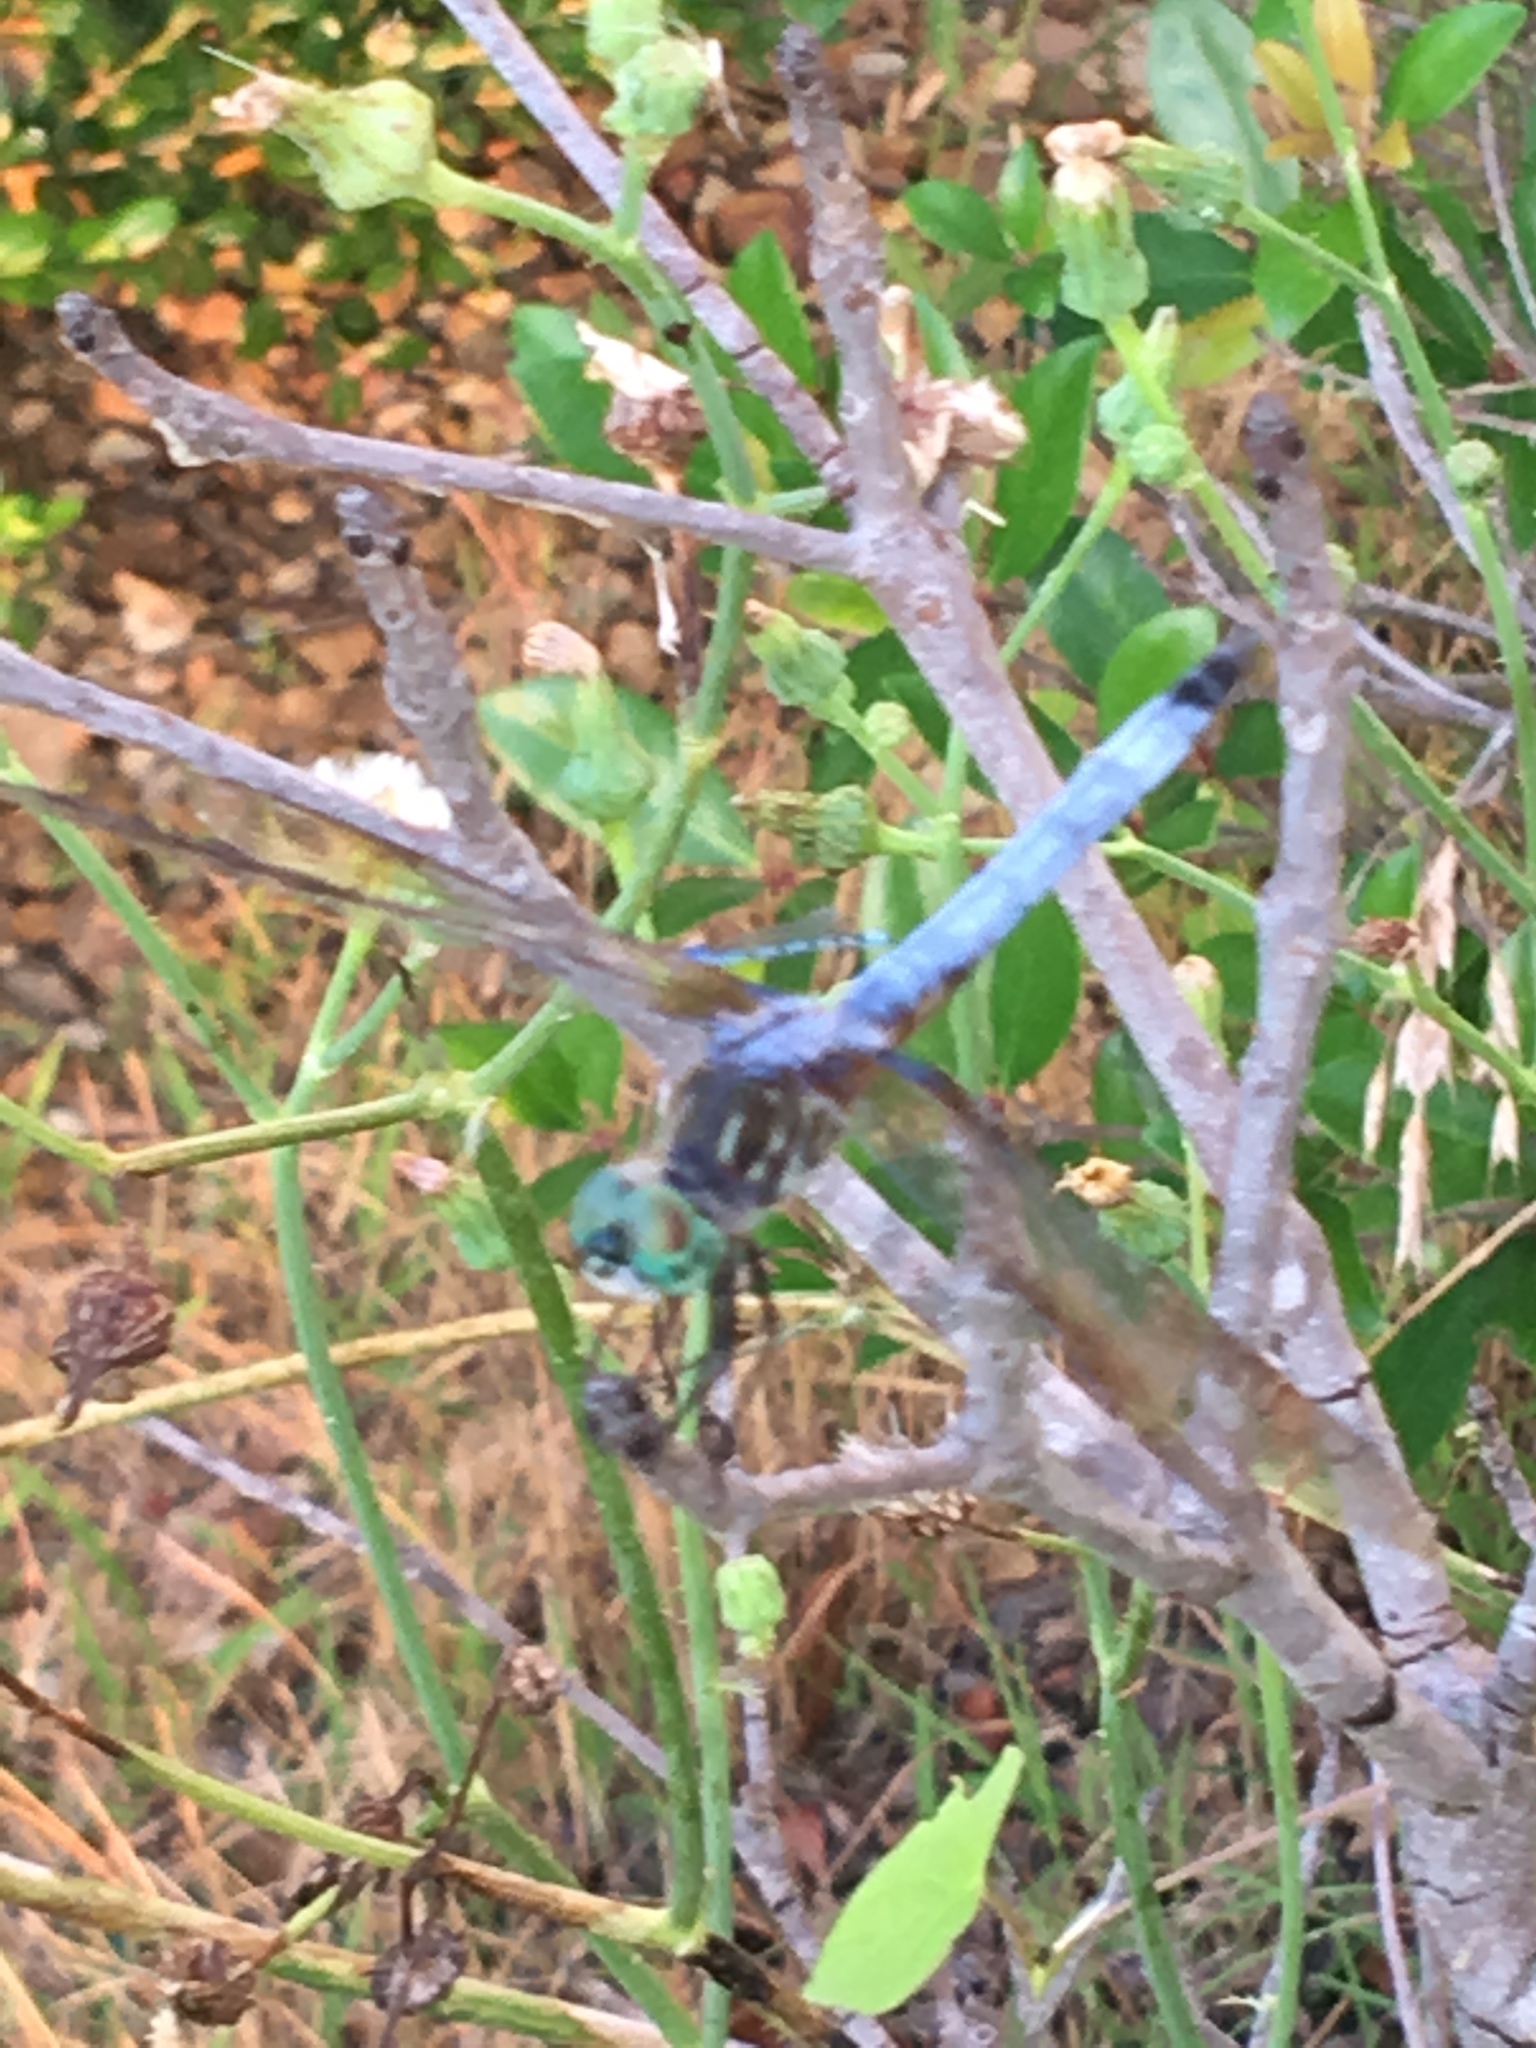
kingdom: Animalia
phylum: Arthropoda
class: Insecta
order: Odonata
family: Libellulidae
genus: Pachydiplax
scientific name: Pachydiplax longipennis
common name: Blue dasher
